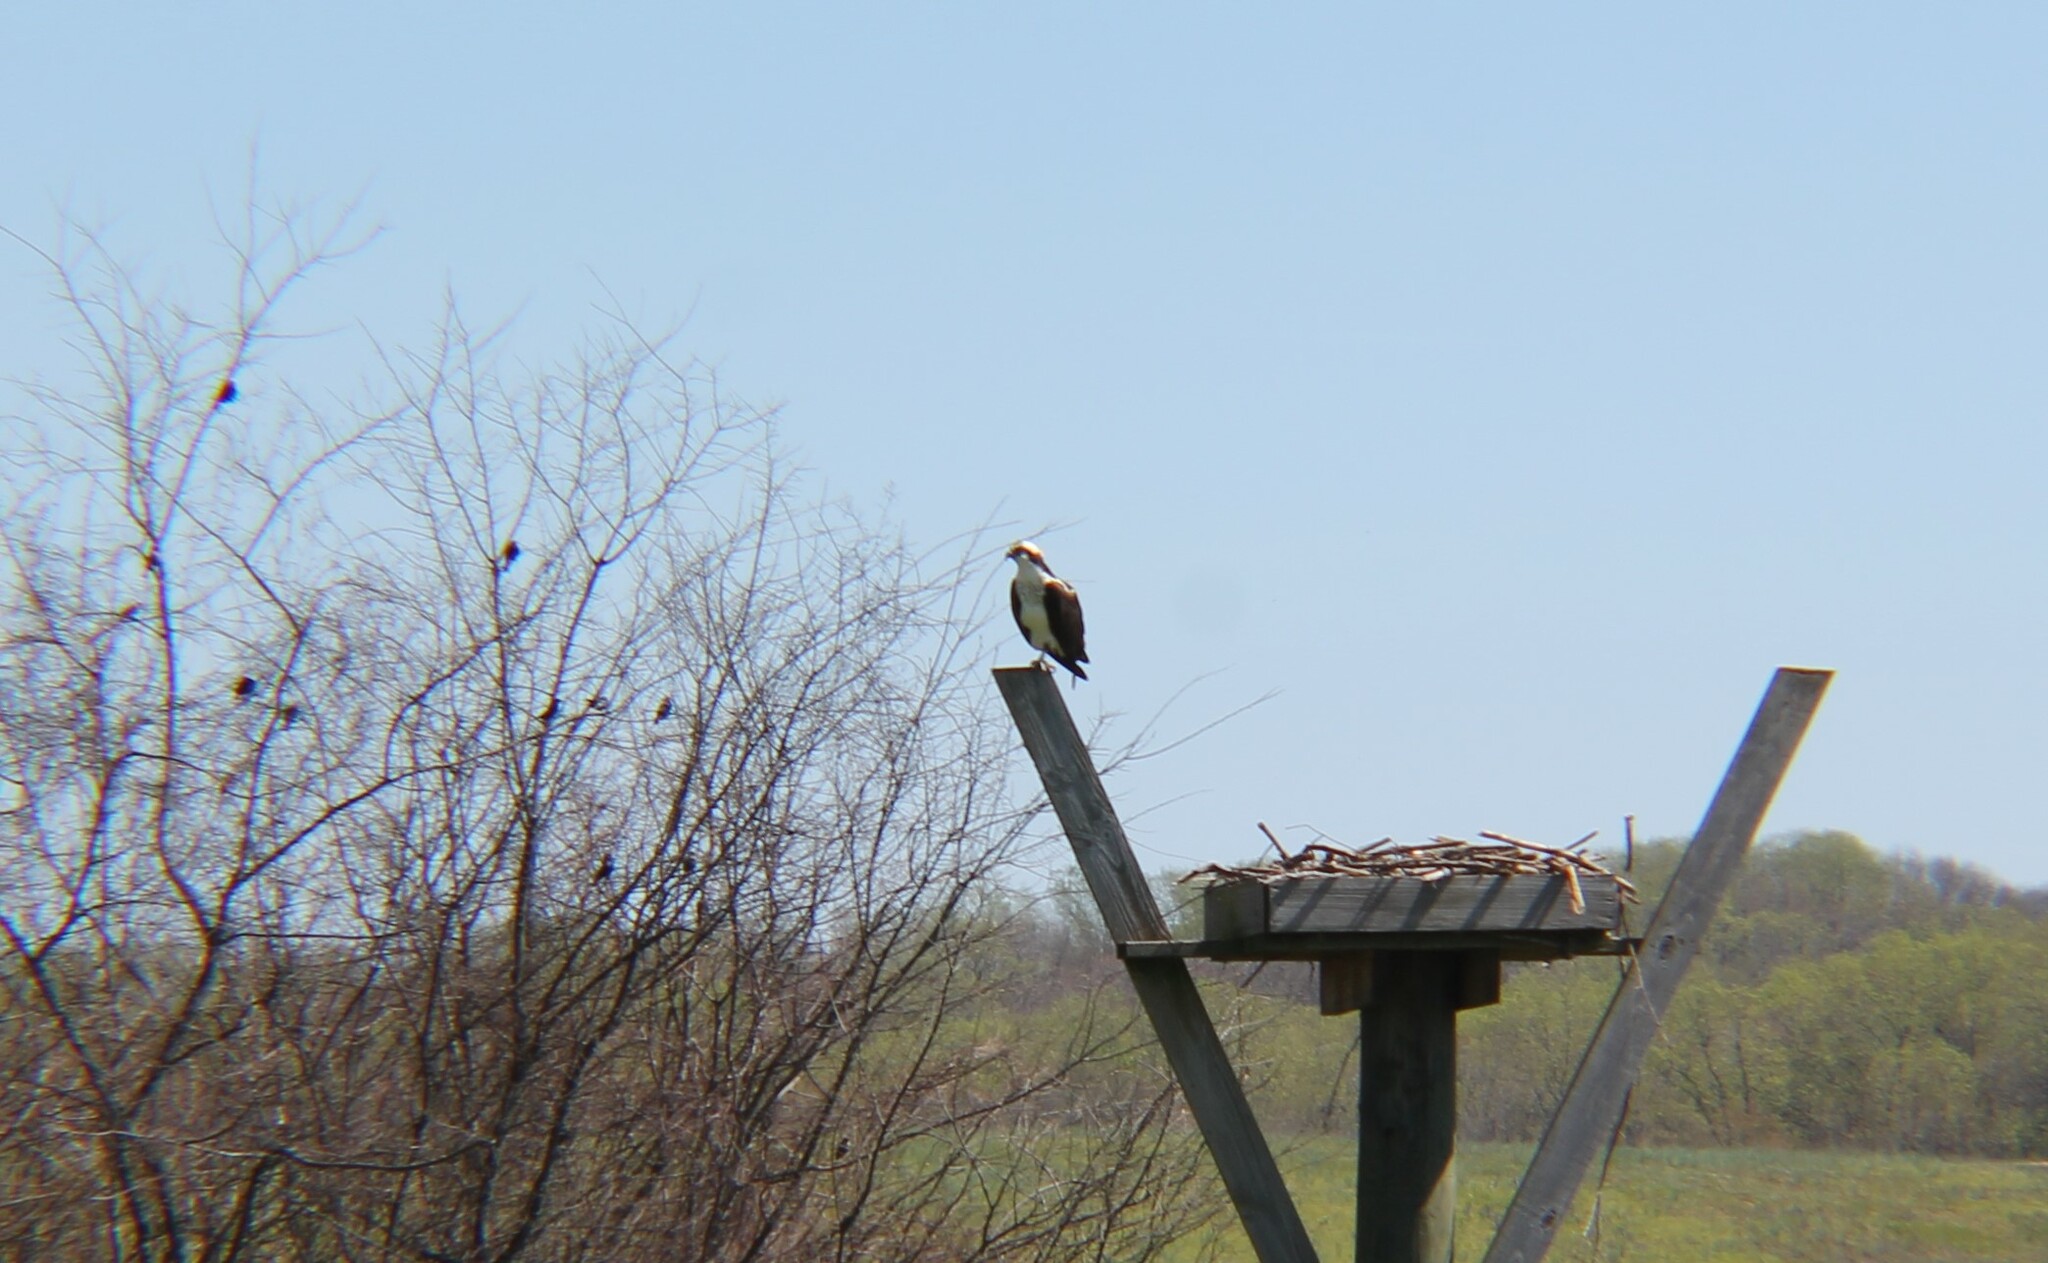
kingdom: Animalia
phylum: Chordata
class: Aves
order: Accipitriformes
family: Pandionidae
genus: Pandion
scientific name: Pandion haliaetus
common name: Osprey
